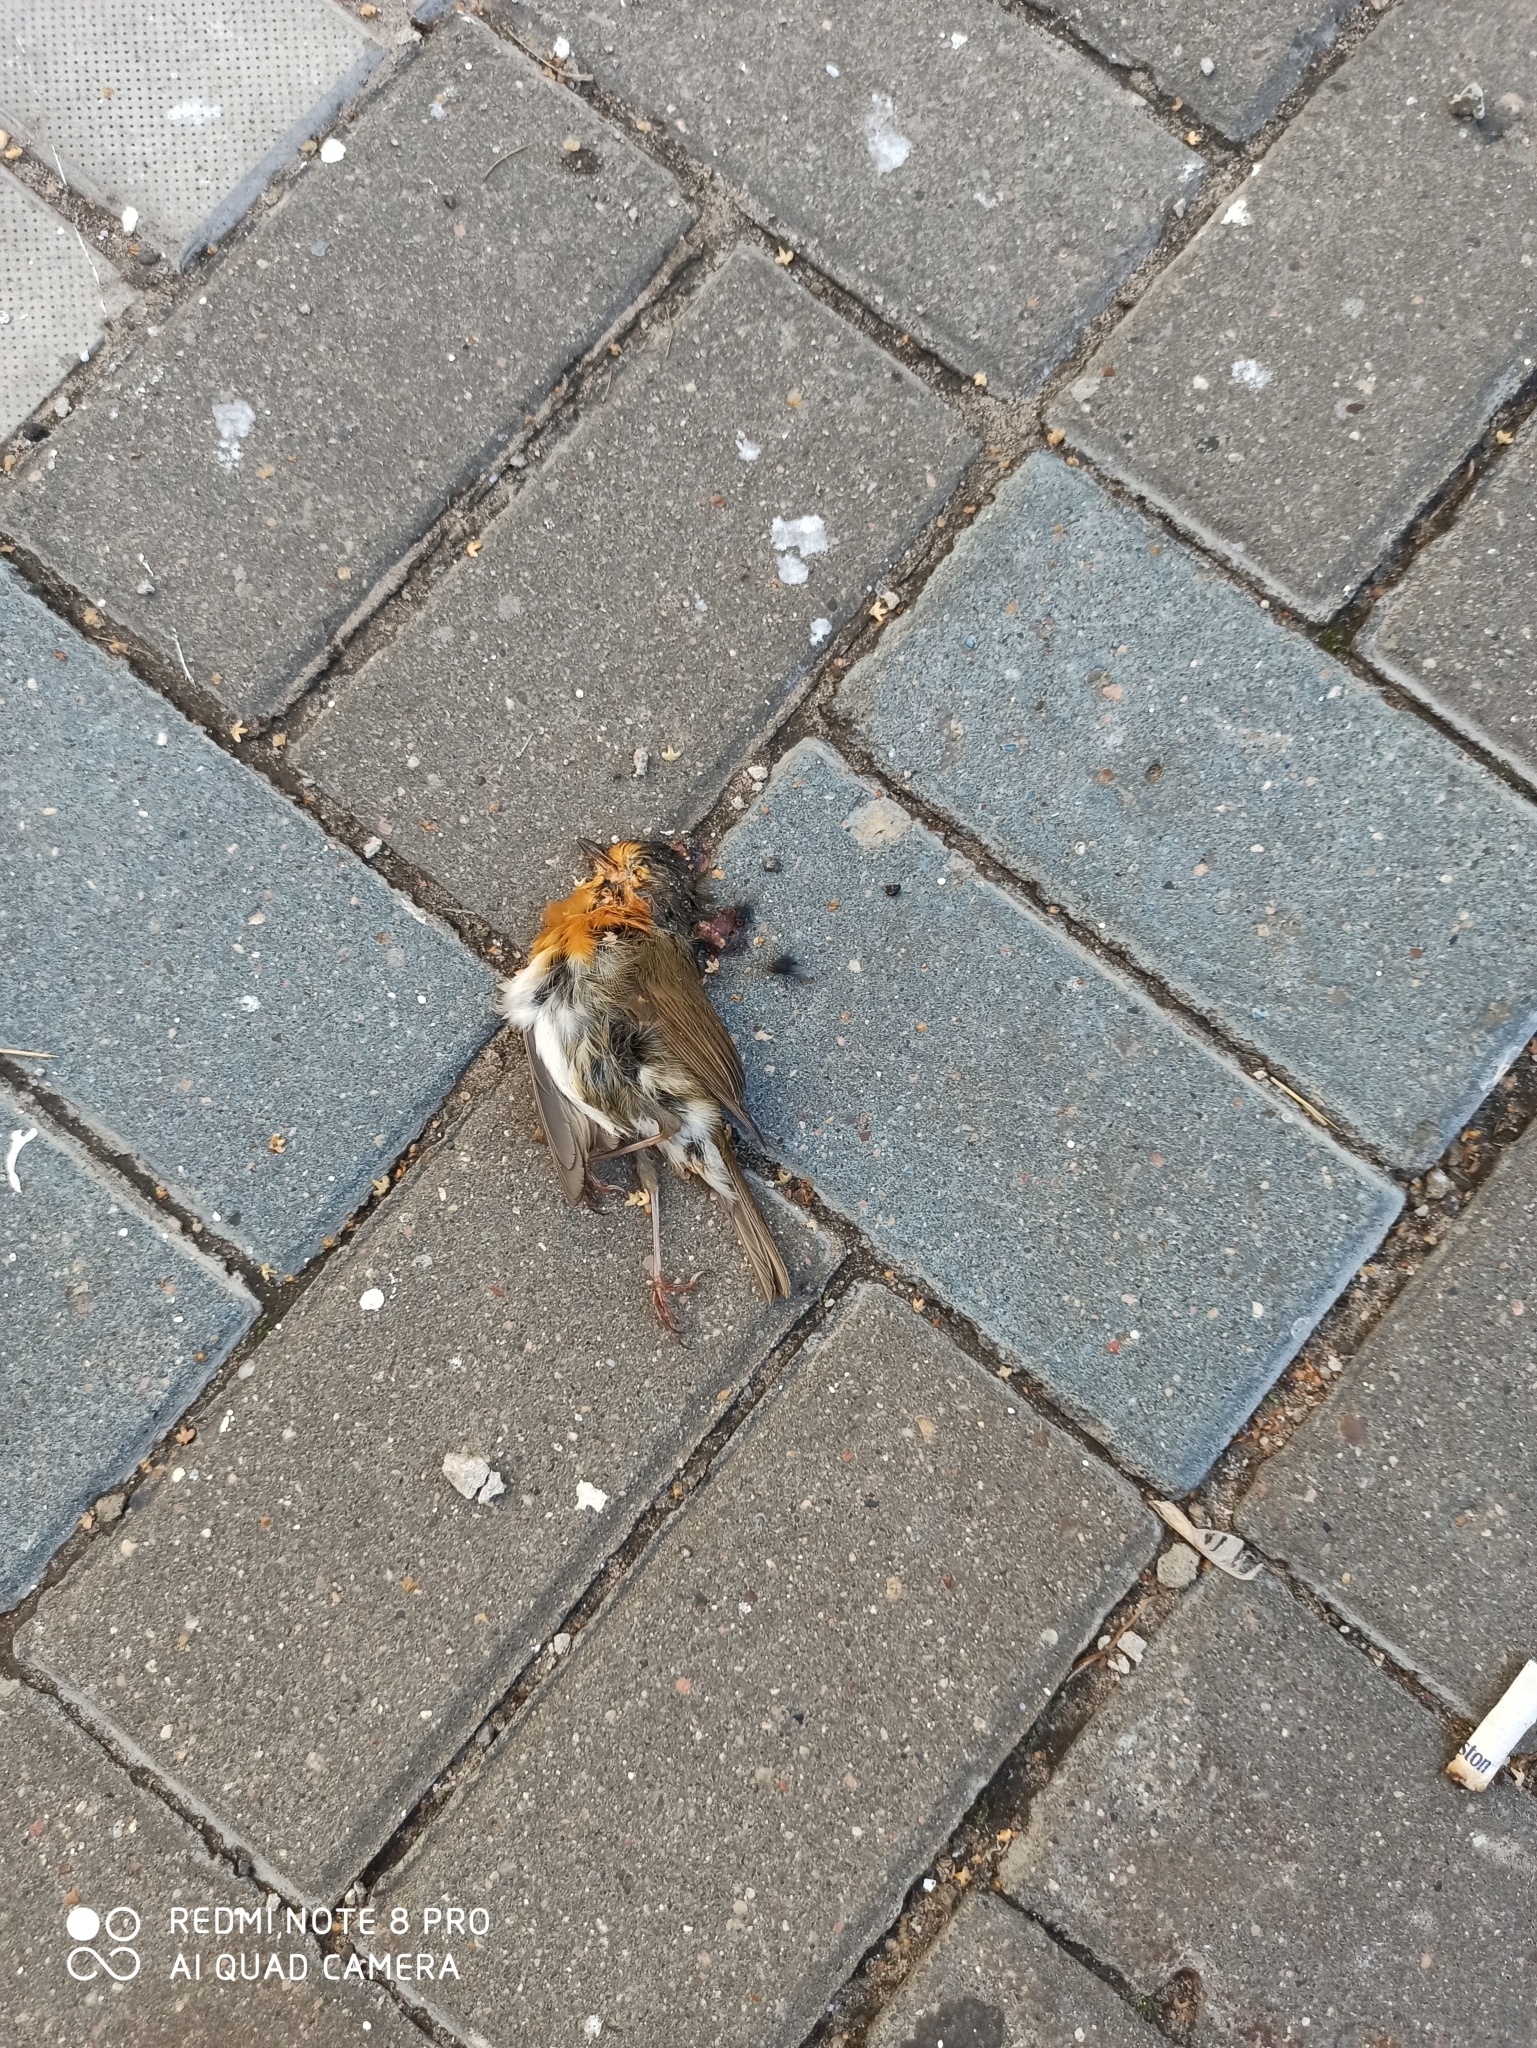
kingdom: Animalia
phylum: Chordata
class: Aves
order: Passeriformes
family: Muscicapidae
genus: Erithacus
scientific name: Erithacus rubecula
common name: European robin
